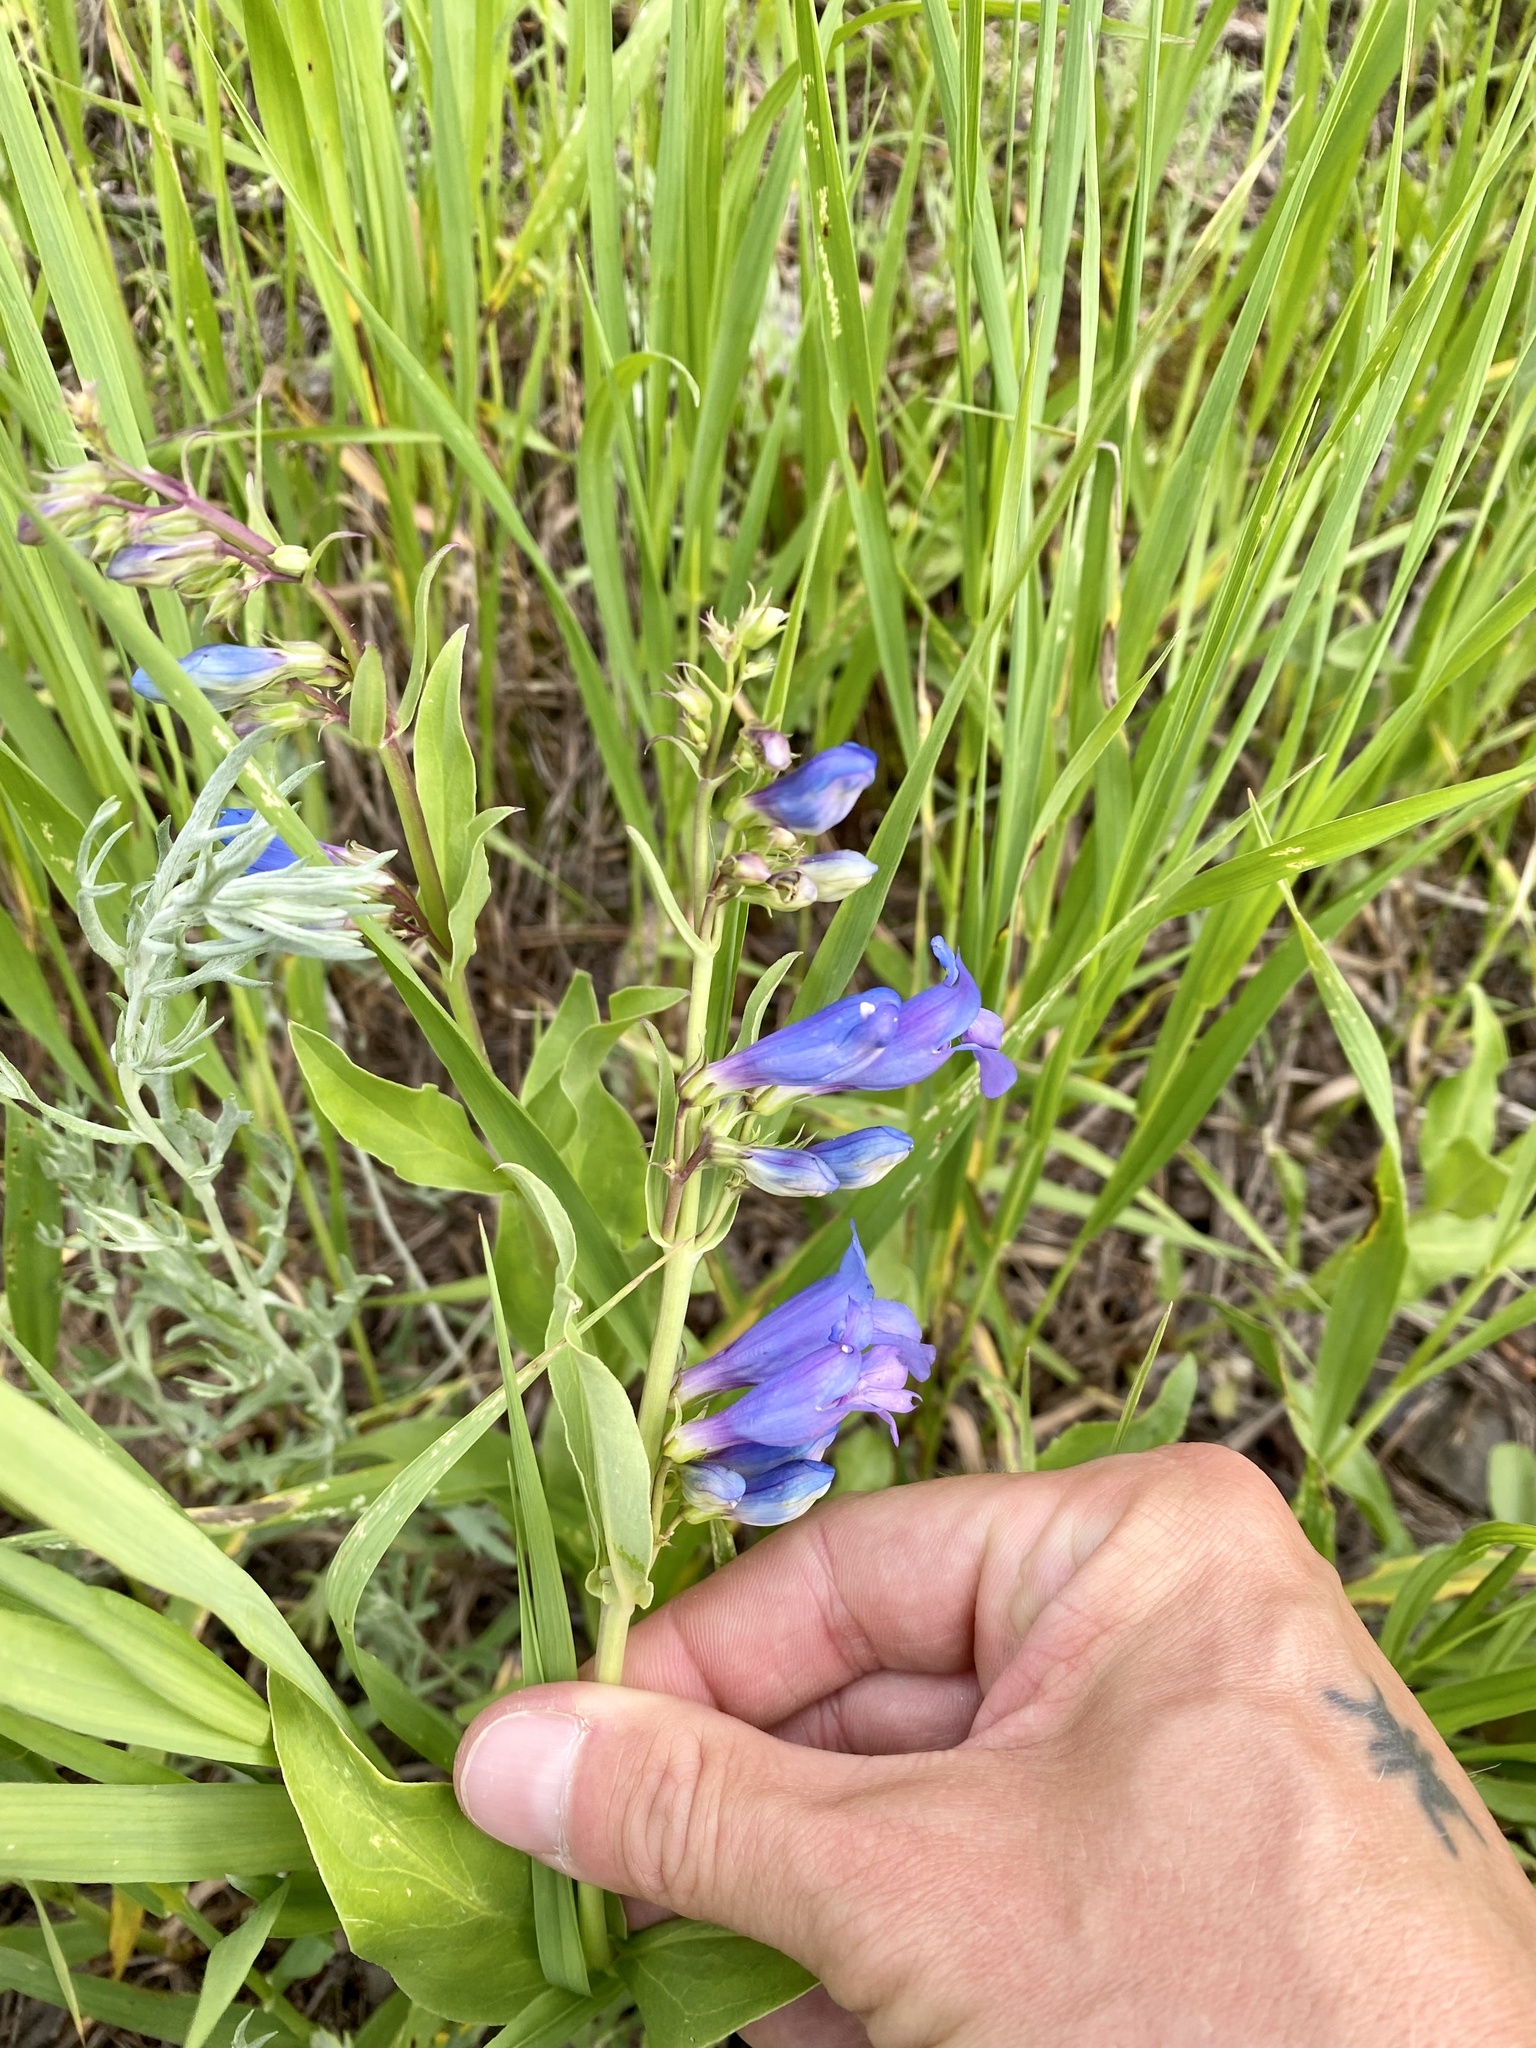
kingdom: Plantae
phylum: Tracheophyta
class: Magnoliopsida
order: Lamiales
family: Plantaginaceae
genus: Penstemon
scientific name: Penstemon glaber
